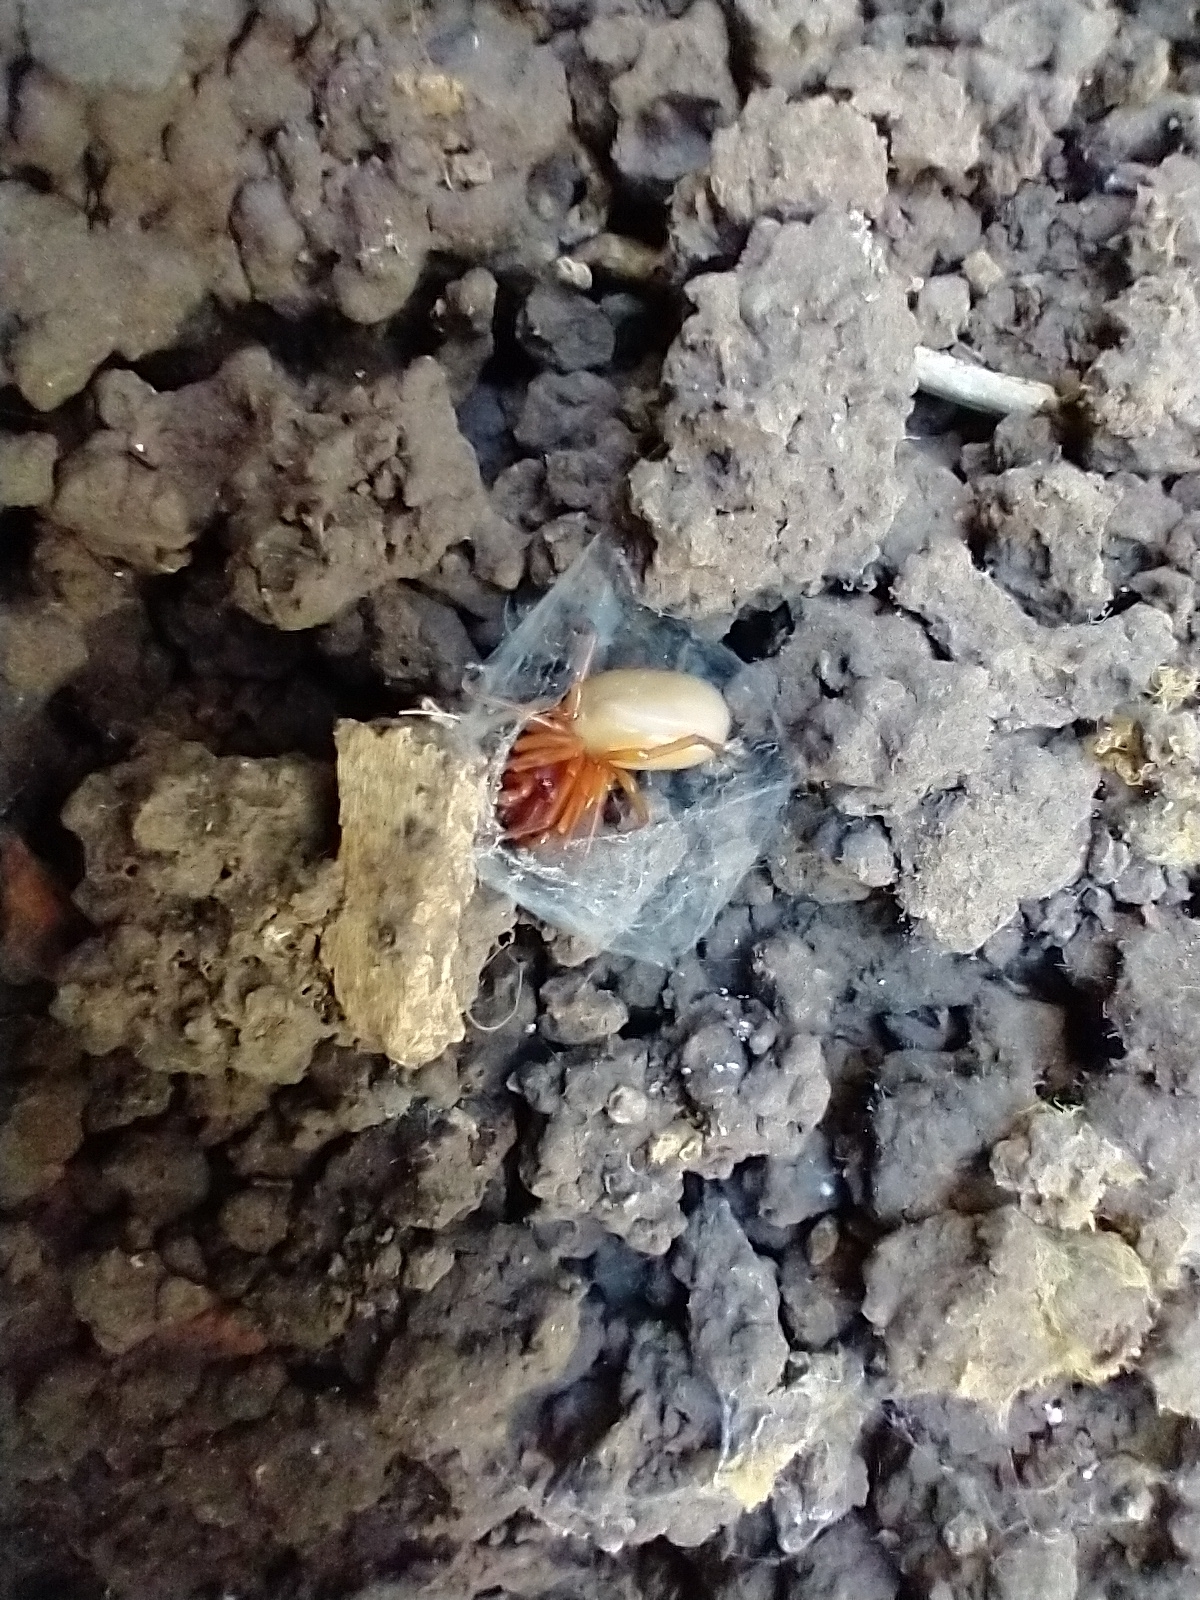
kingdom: Animalia
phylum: Arthropoda
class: Arachnida
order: Araneae
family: Dysderidae
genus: Dysdera
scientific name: Dysdera crocata
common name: Woodlouse spider
